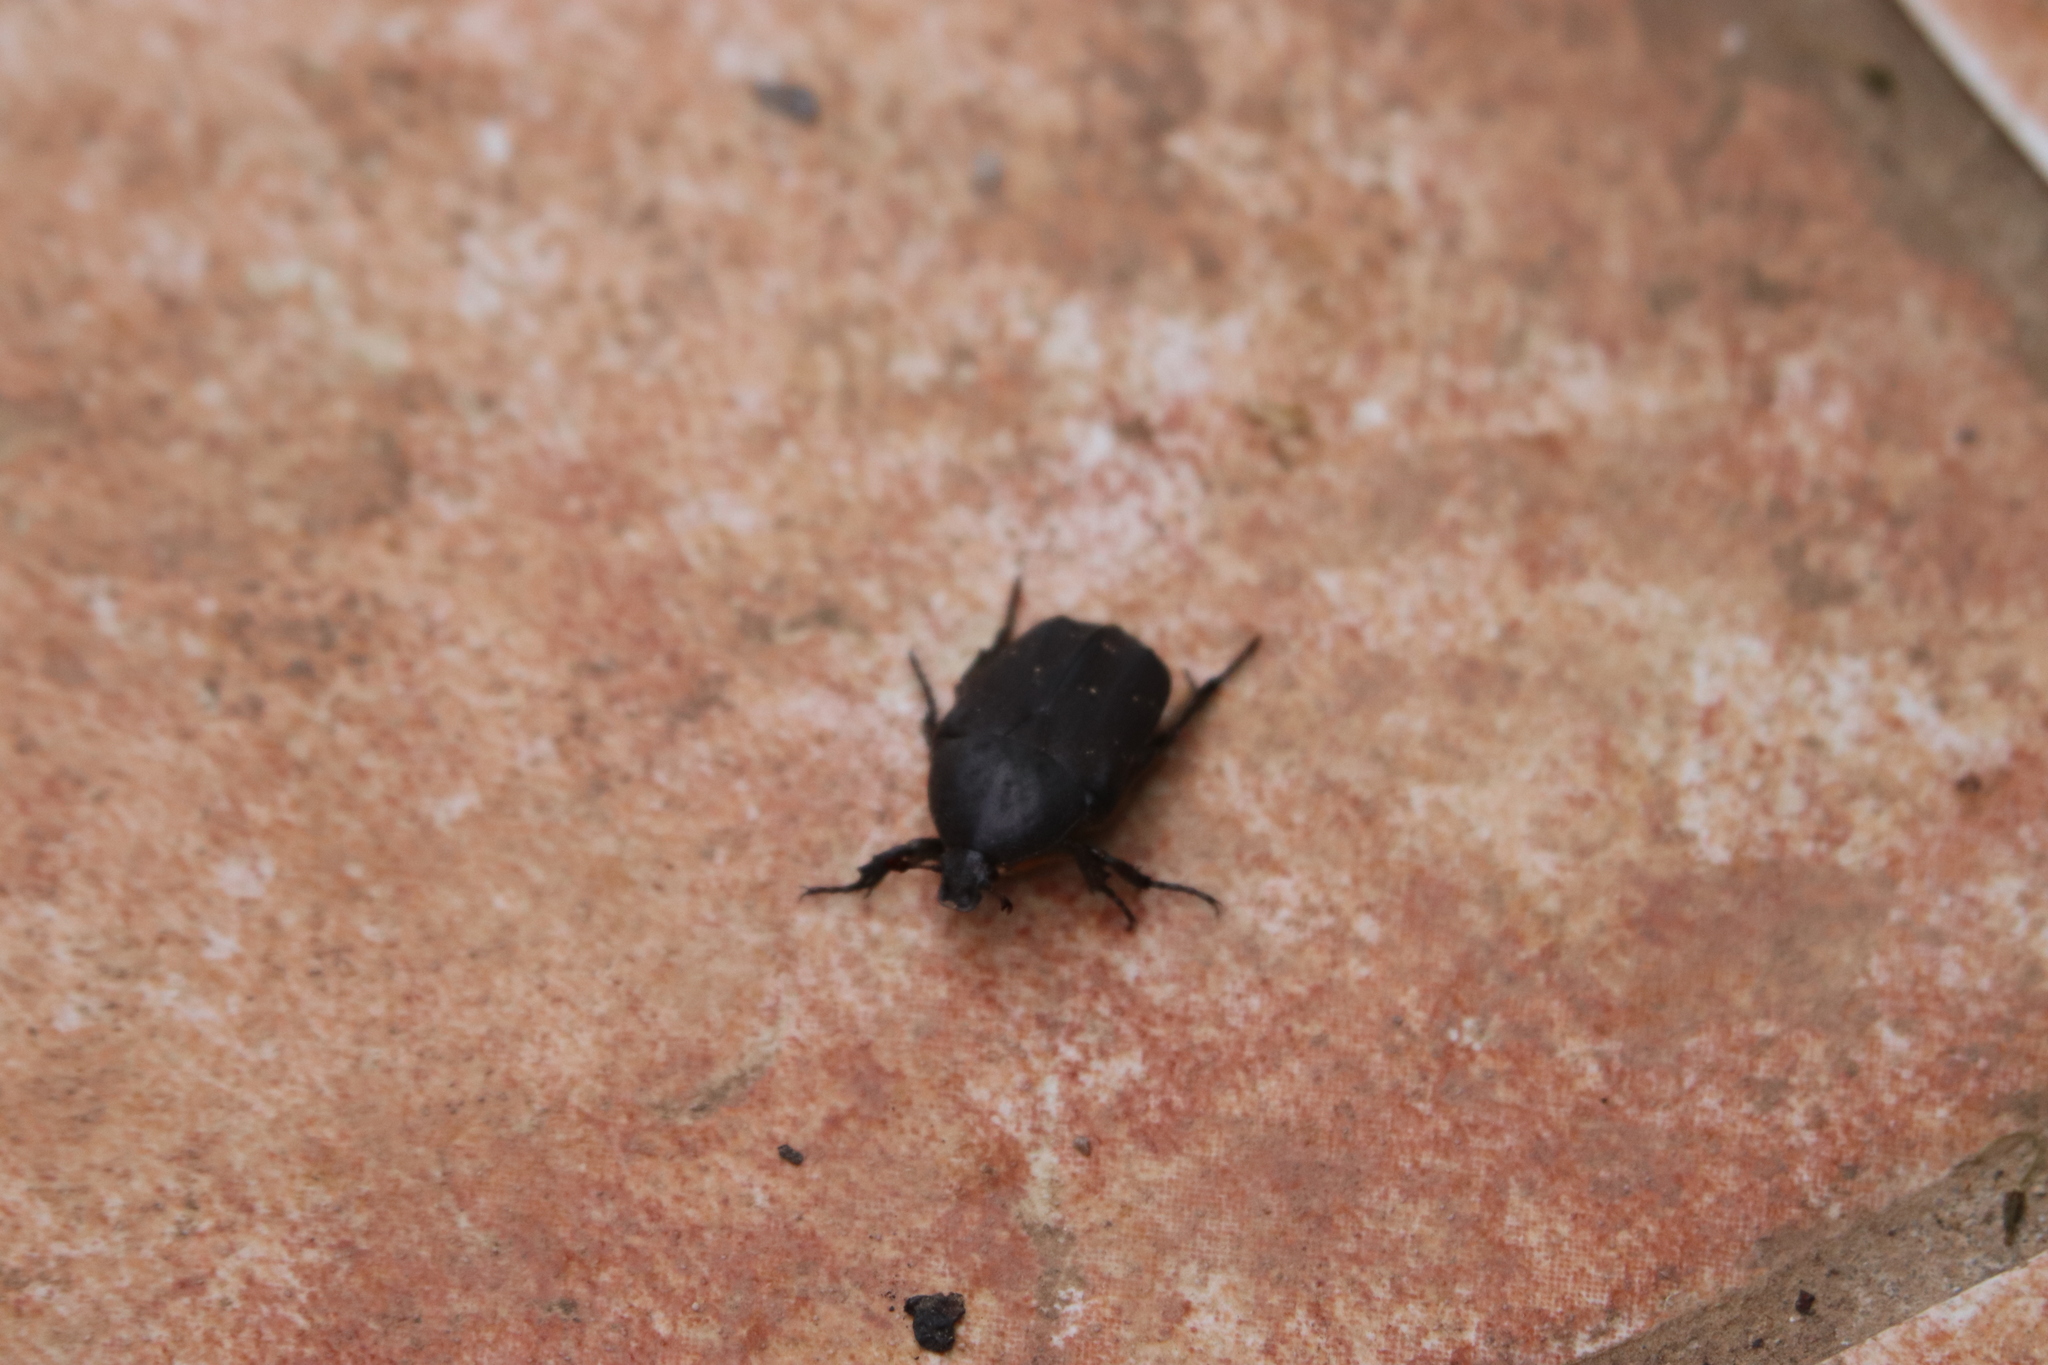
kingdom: Animalia
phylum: Arthropoda
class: Insecta
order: Coleoptera
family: Scarabaeidae
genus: Protaetia
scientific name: Protaetia morio
